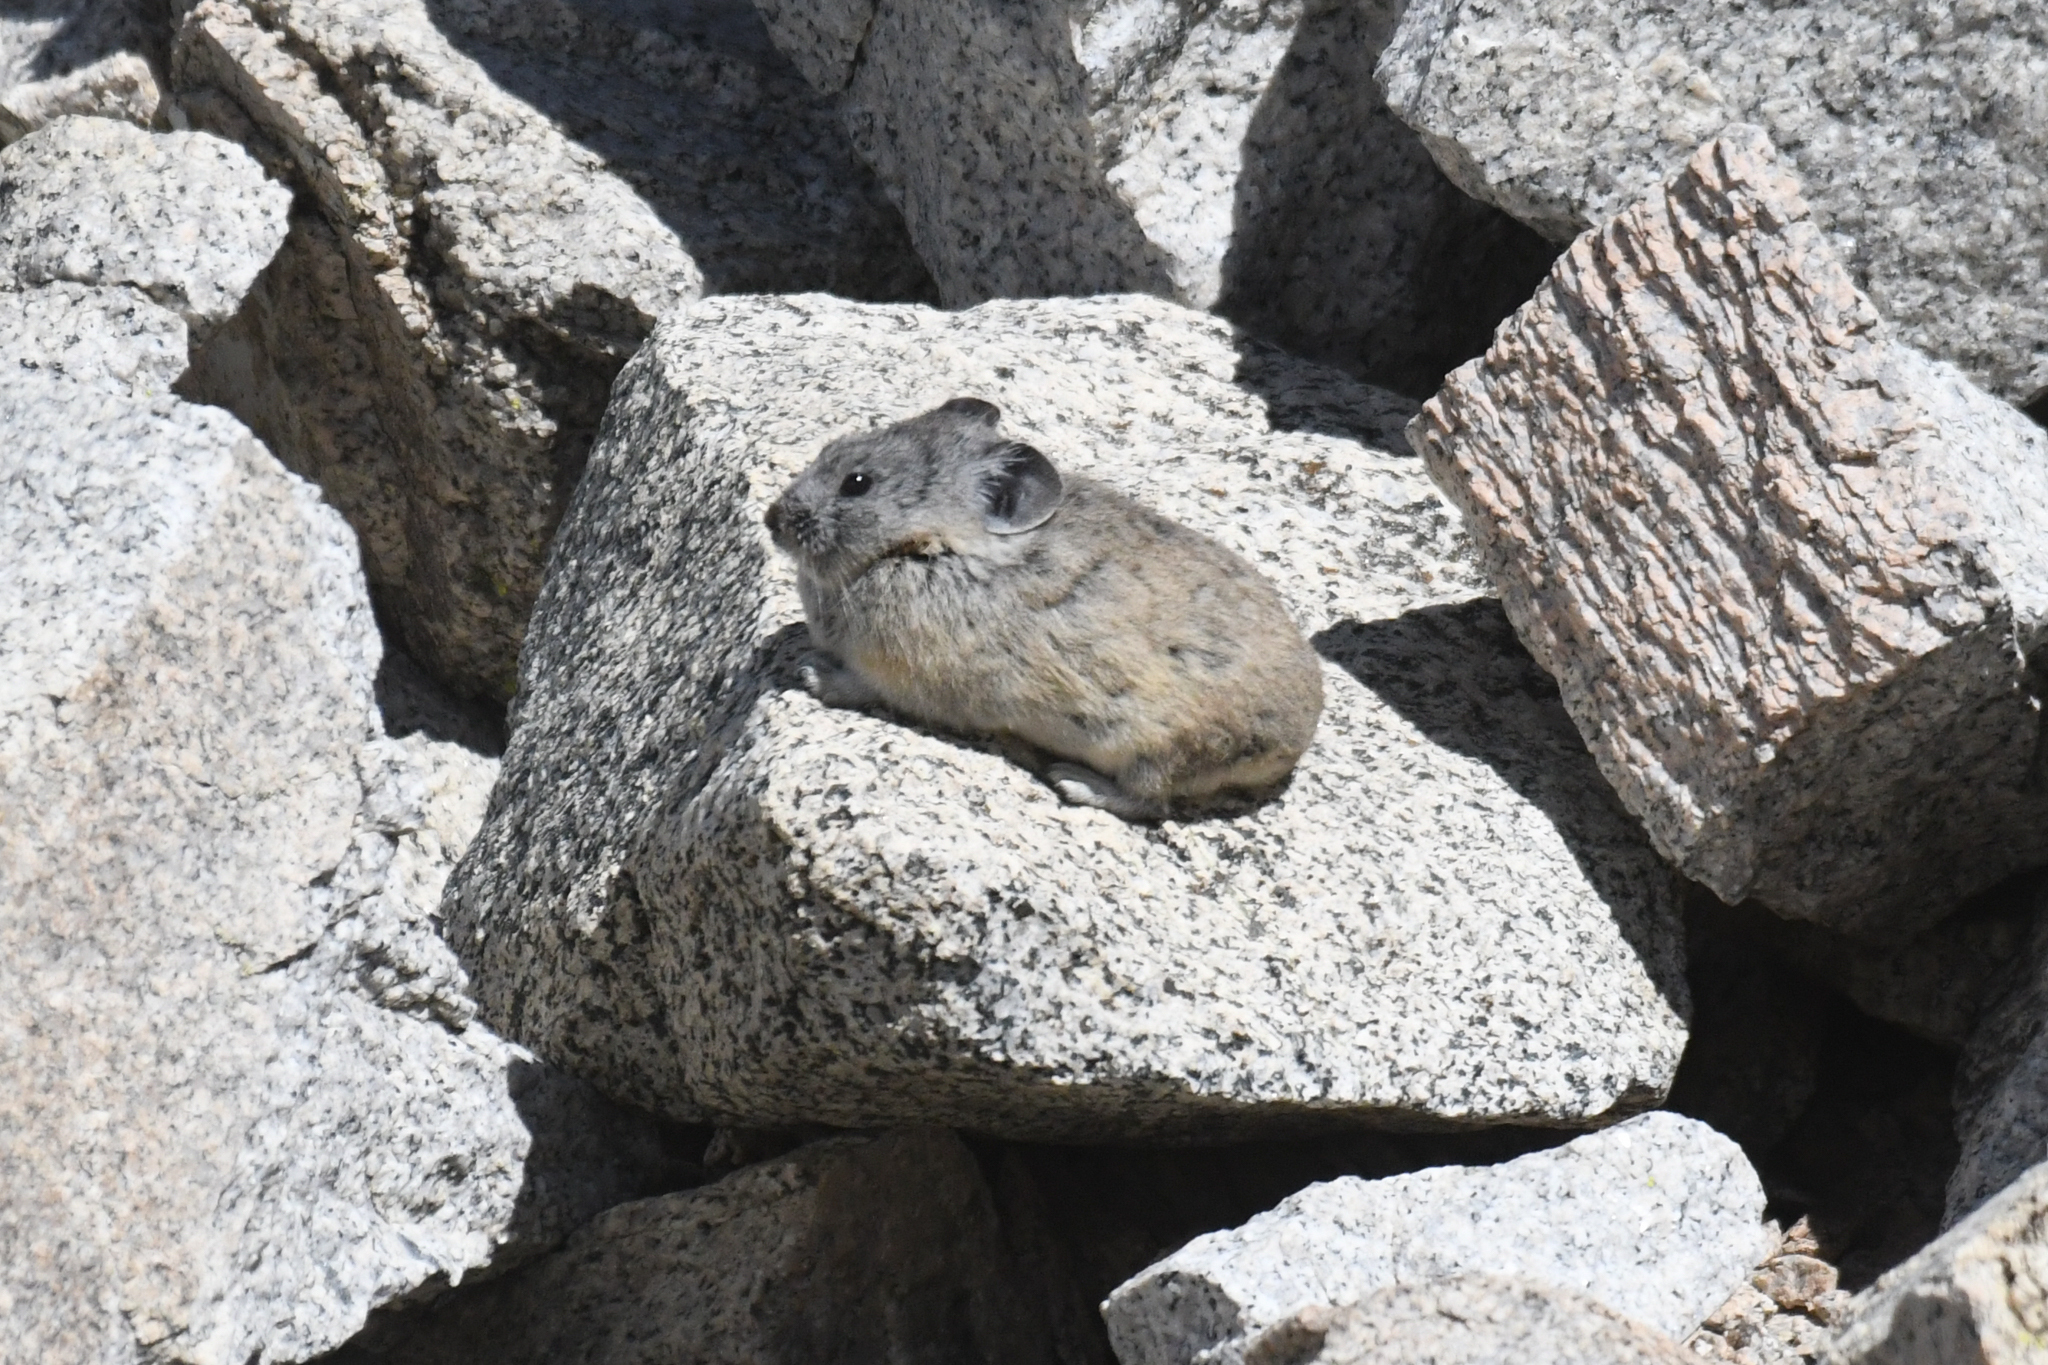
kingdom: Animalia
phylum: Chordata
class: Mammalia
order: Lagomorpha
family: Ochotonidae
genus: Ochotona
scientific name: Ochotona princeps
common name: American pika
